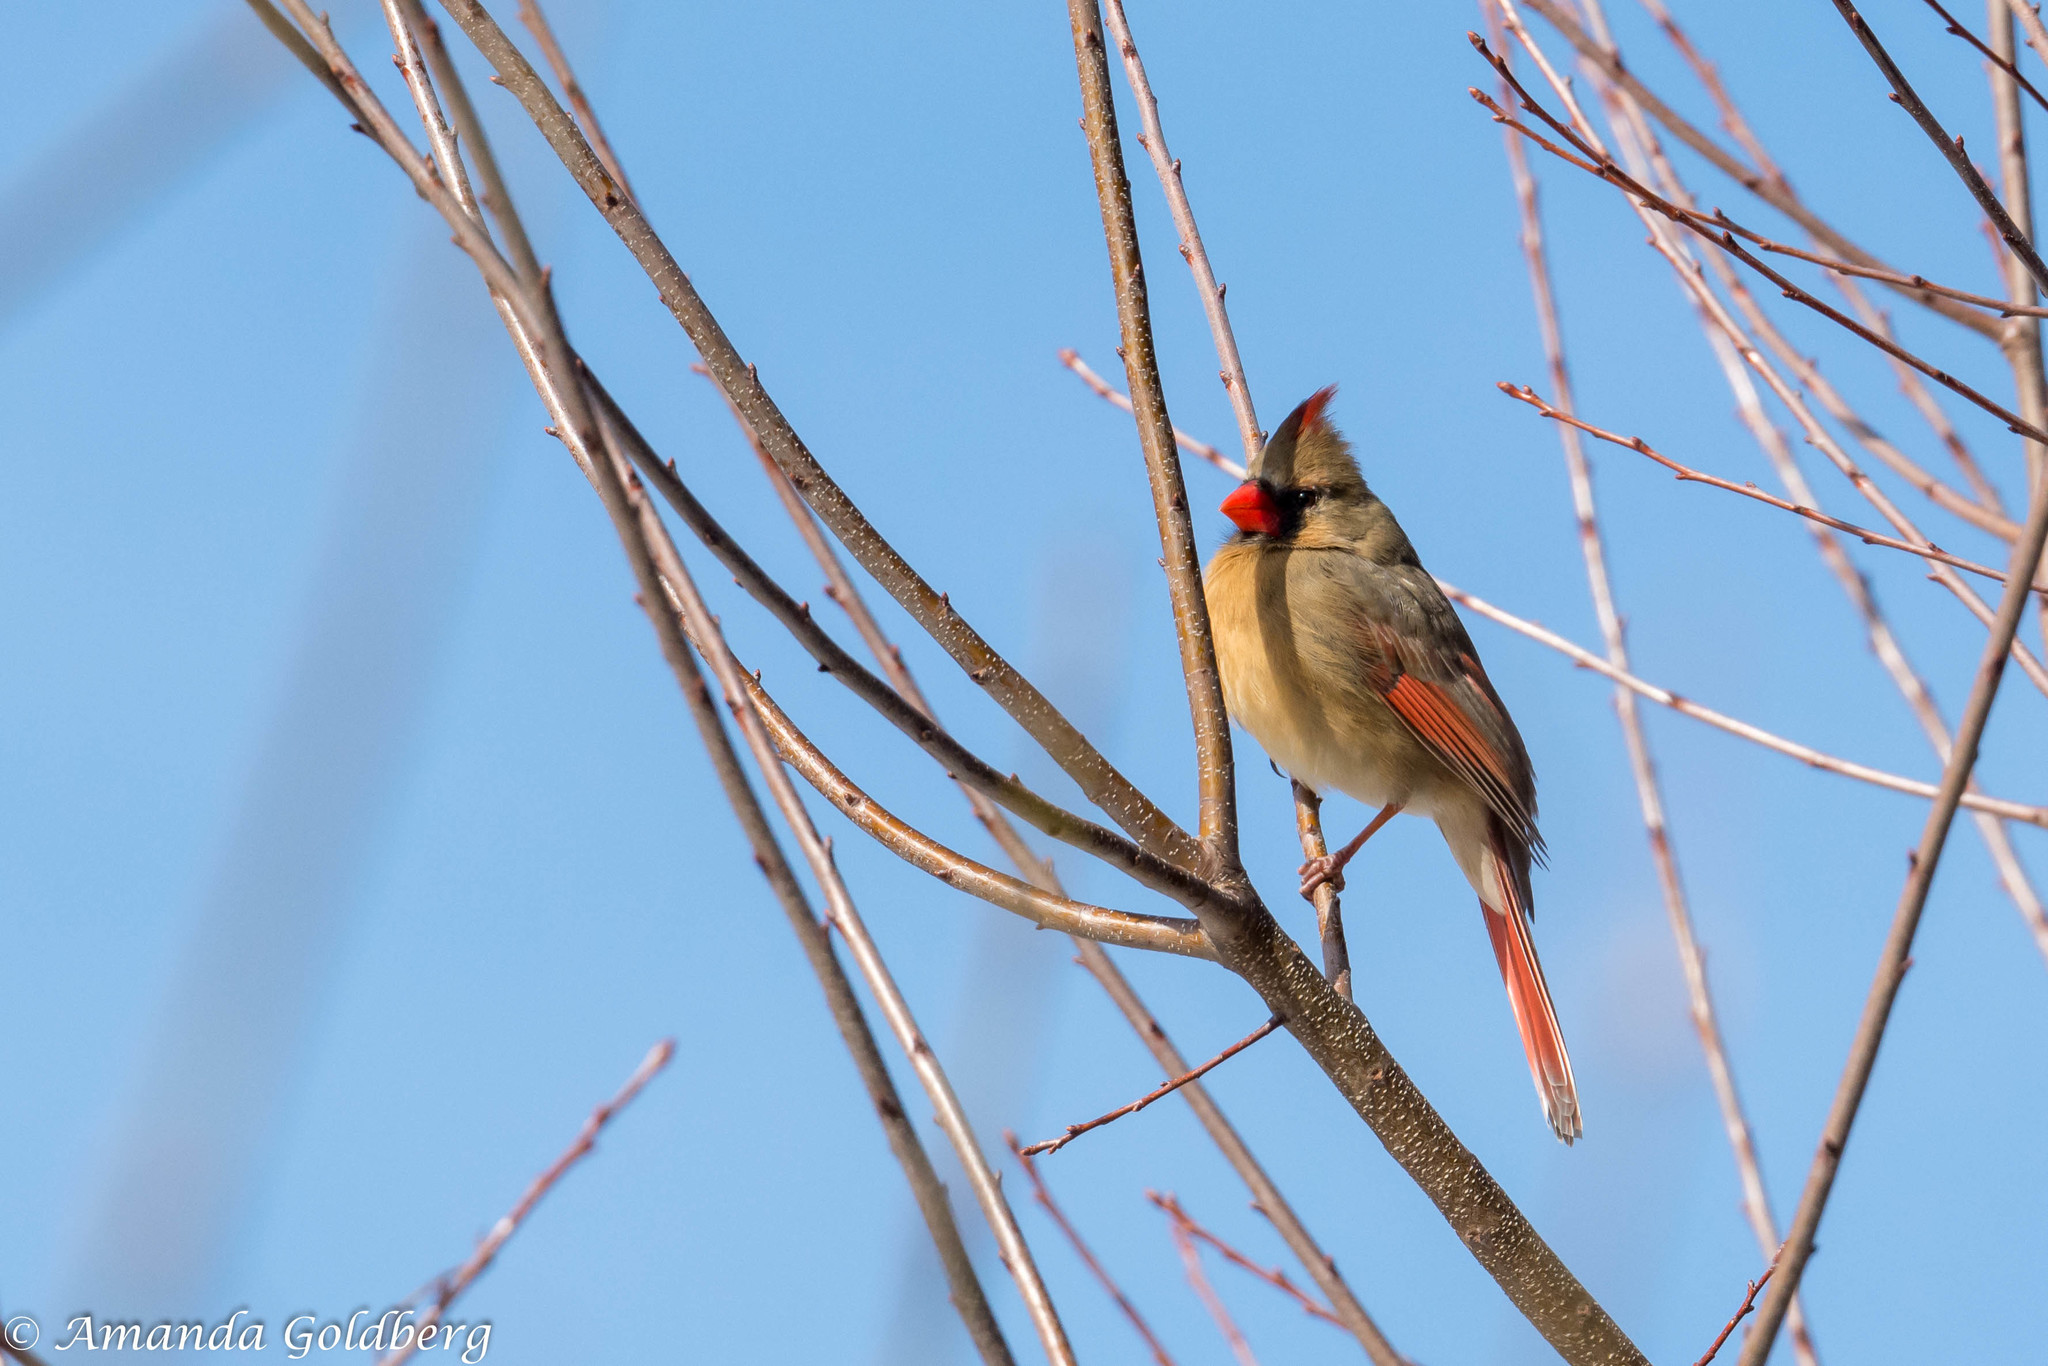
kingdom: Animalia
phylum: Chordata
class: Aves
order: Passeriformes
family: Cardinalidae
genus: Cardinalis
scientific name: Cardinalis cardinalis
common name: Northern cardinal
